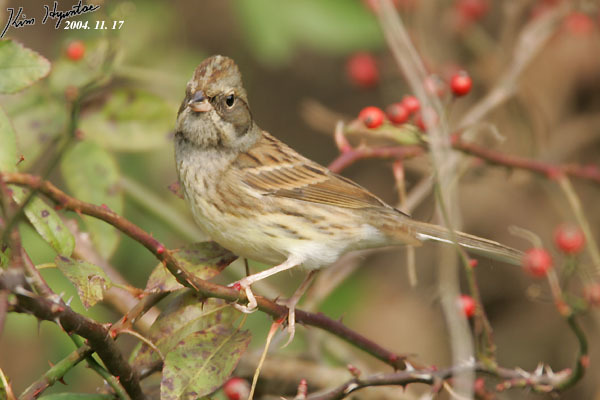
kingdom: Animalia
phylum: Chordata
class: Aves
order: Passeriformes
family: Emberizidae
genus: Emberiza
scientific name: Emberiza spodocephala
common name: Black-faced bunting
